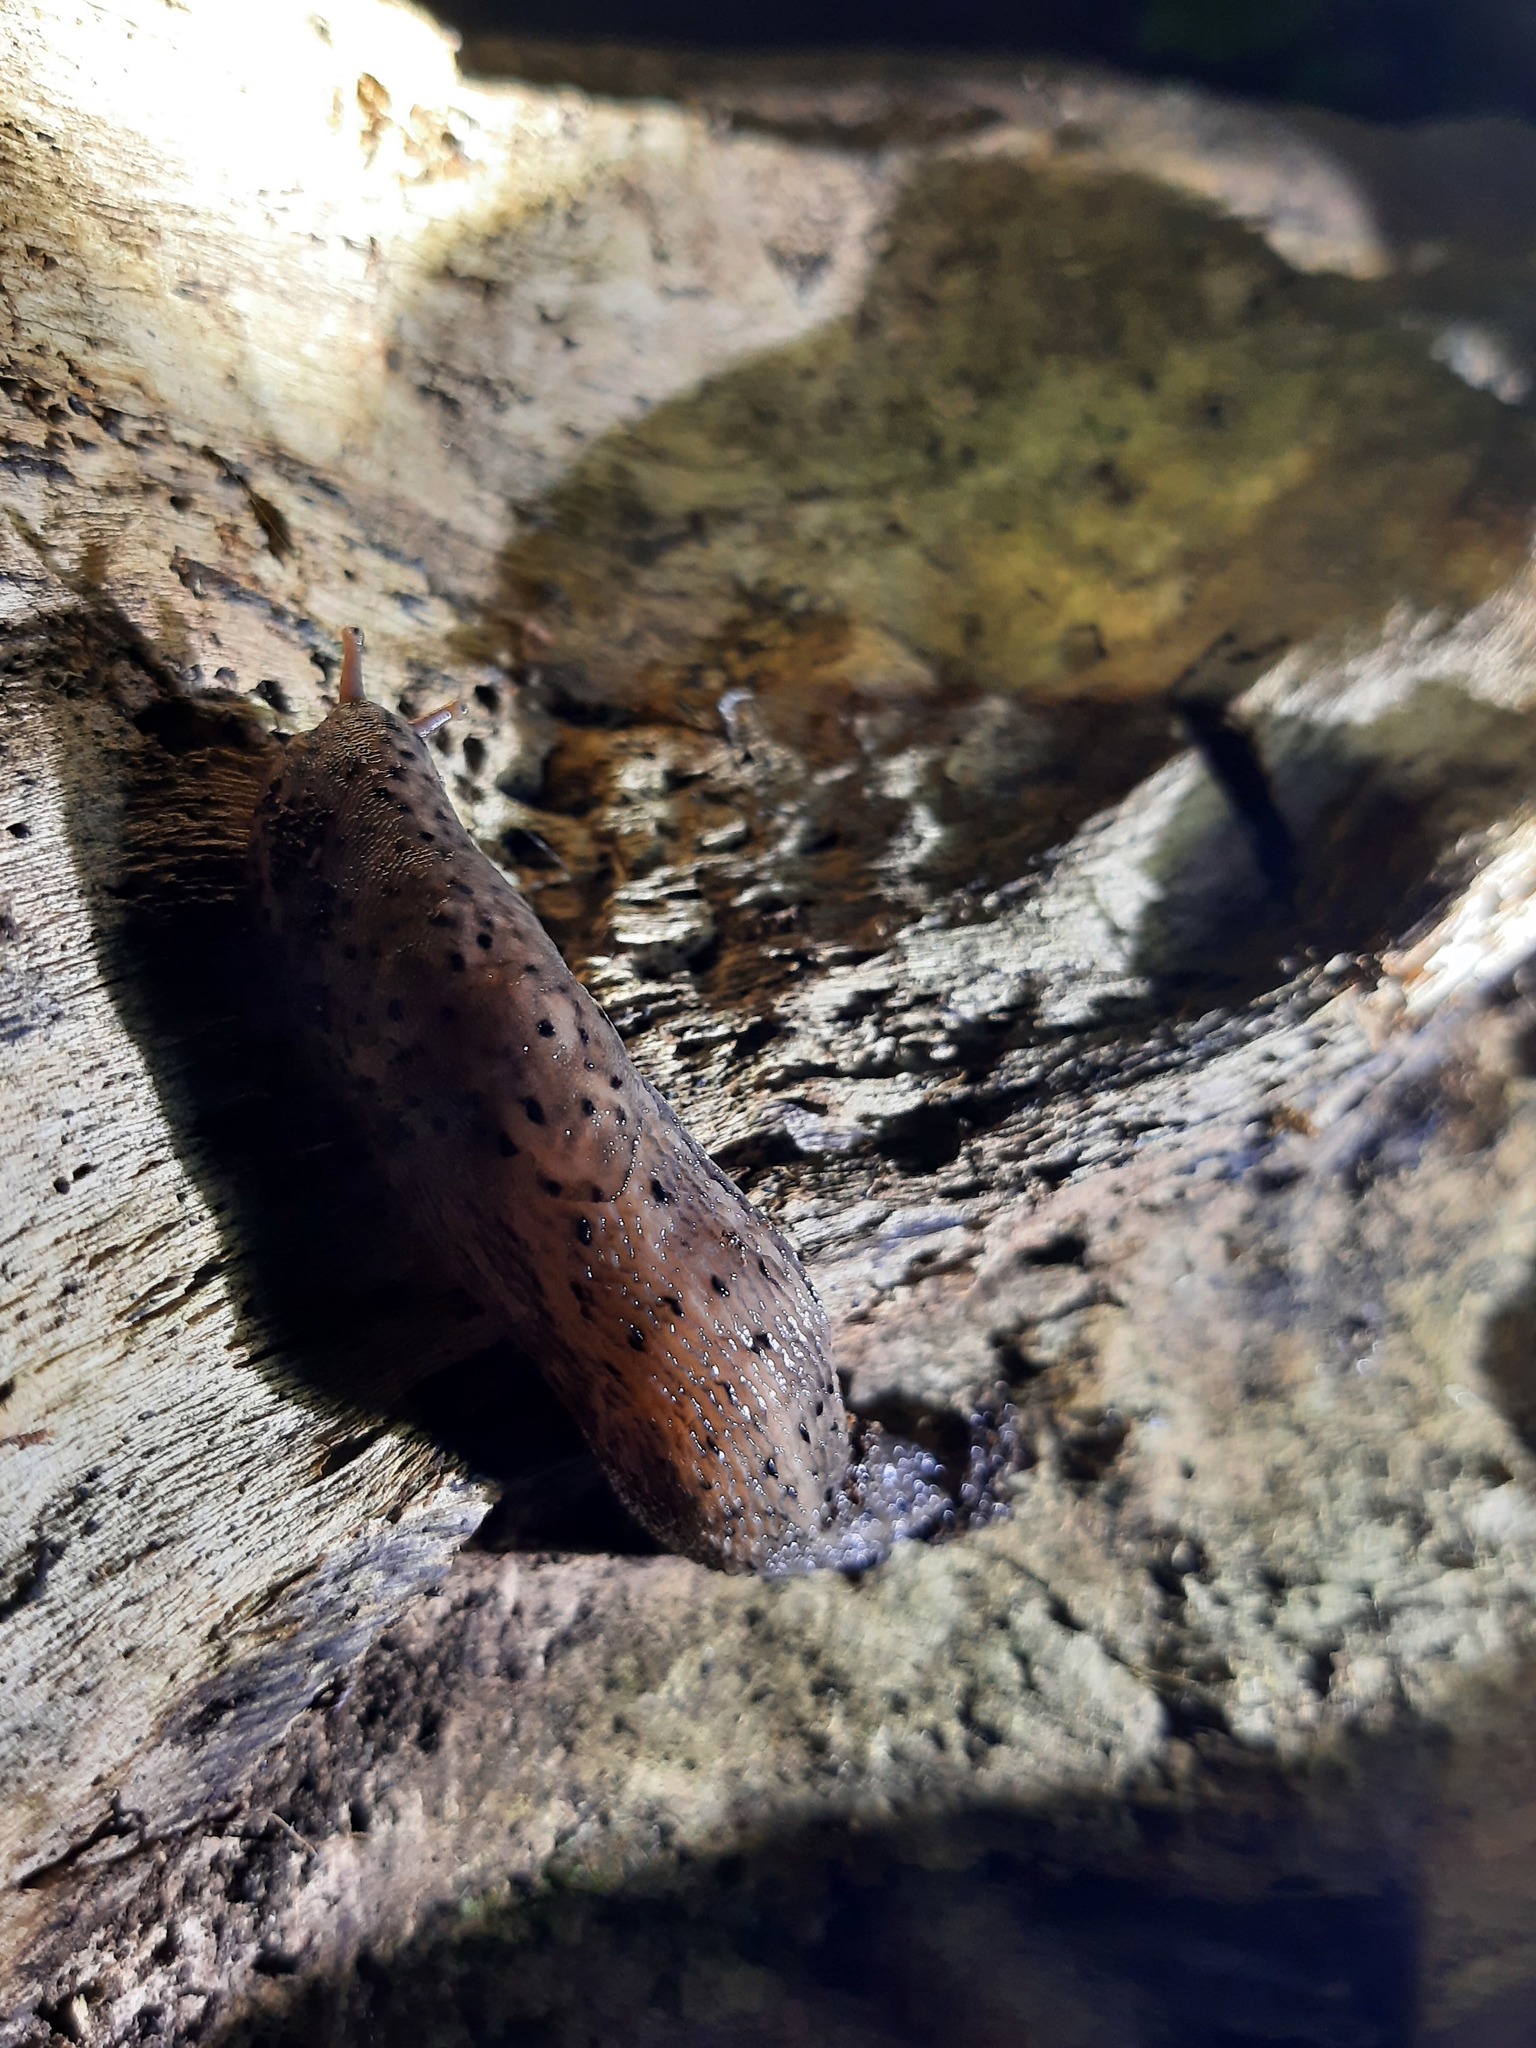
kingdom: Animalia
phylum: Mollusca
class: Gastropoda
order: Stylommatophora
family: Limacidae
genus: Limax
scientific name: Limax maximus
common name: Great grey slug
